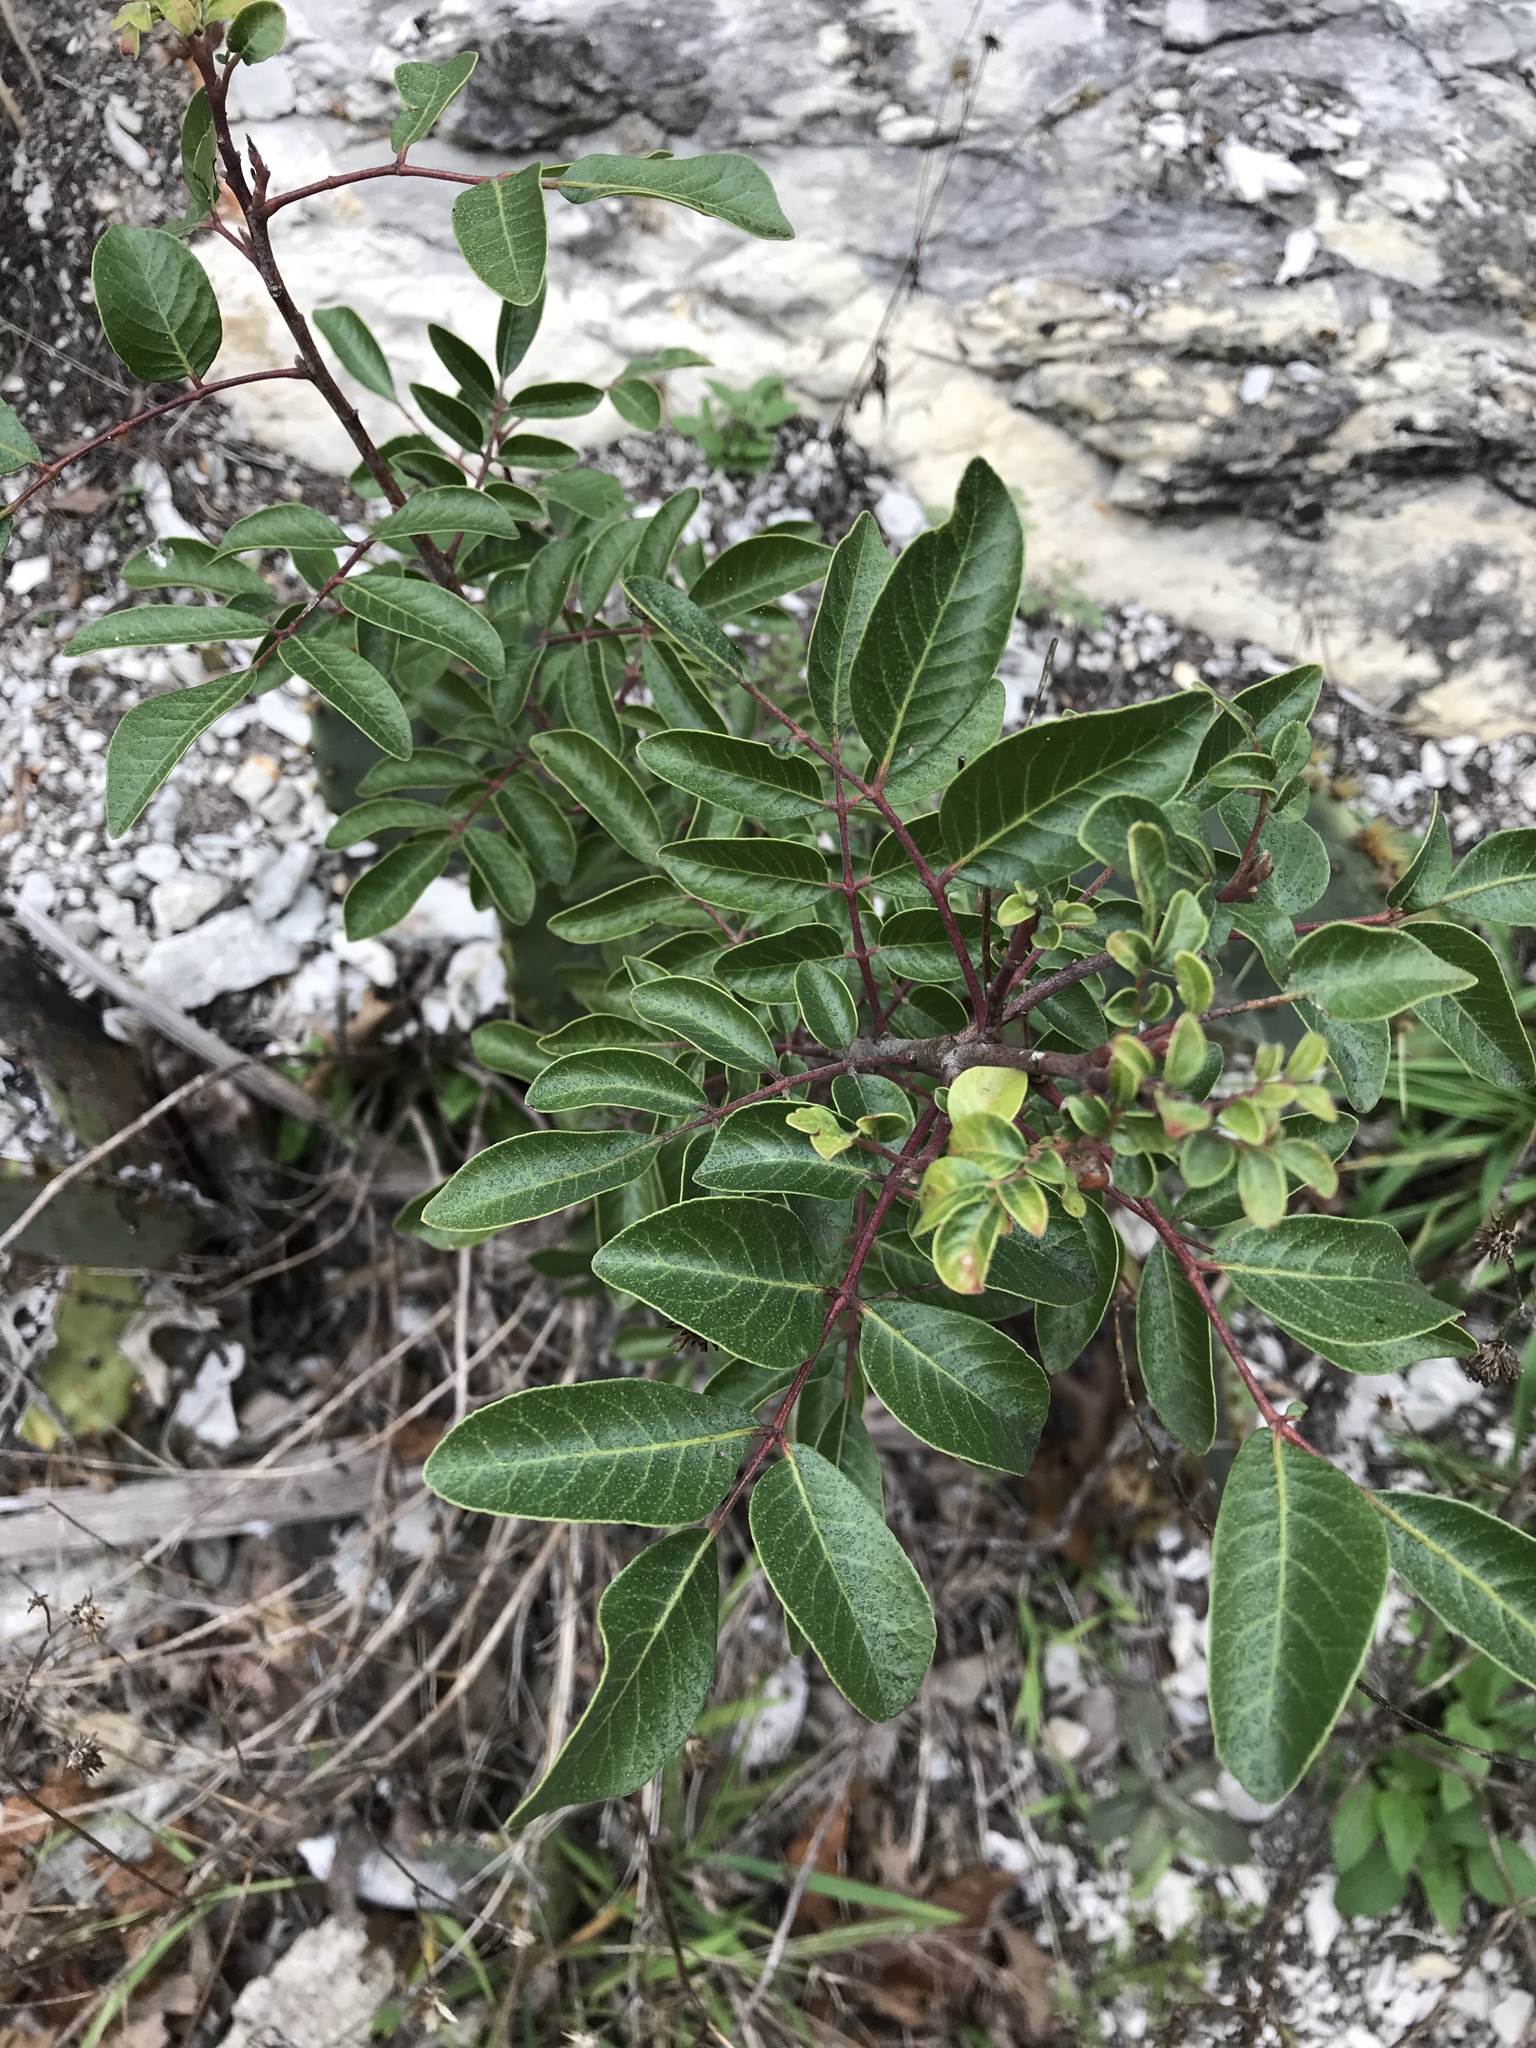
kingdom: Plantae
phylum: Tracheophyta
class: Magnoliopsida
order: Sapindales
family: Anacardiaceae
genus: Rhus
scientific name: Rhus virens
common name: Evergreen sumac
